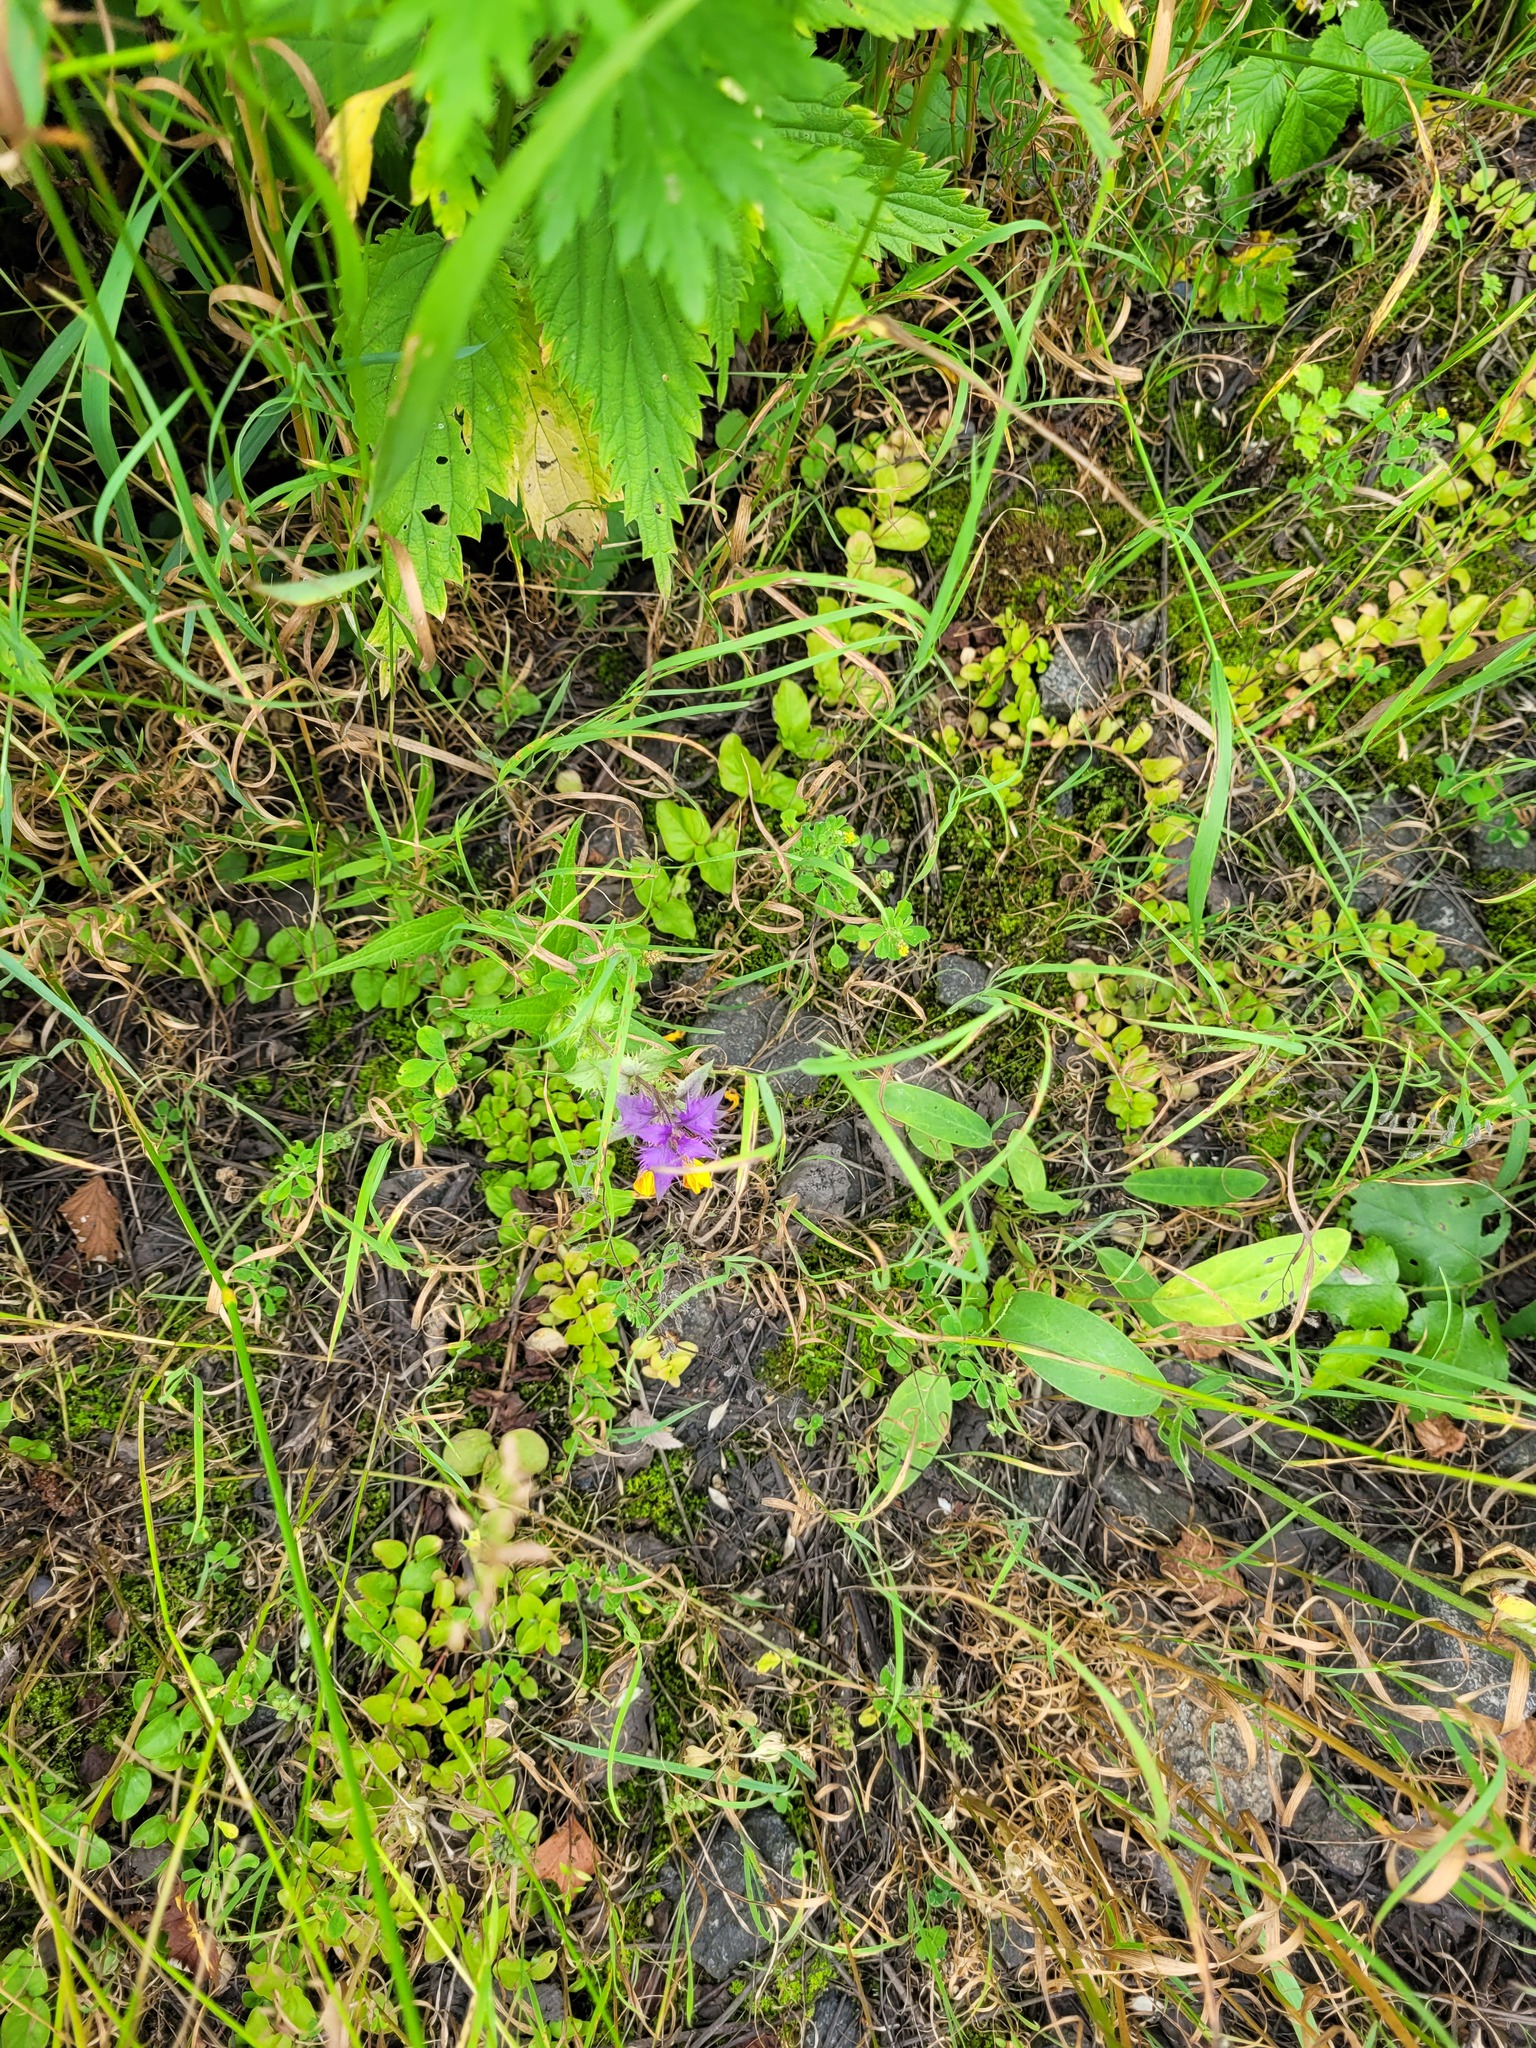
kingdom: Plantae
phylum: Tracheophyta
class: Magnoliopsida
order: Lamiales
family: Orobanchaceae
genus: Melampyrum
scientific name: Melampyrum nemorosum
